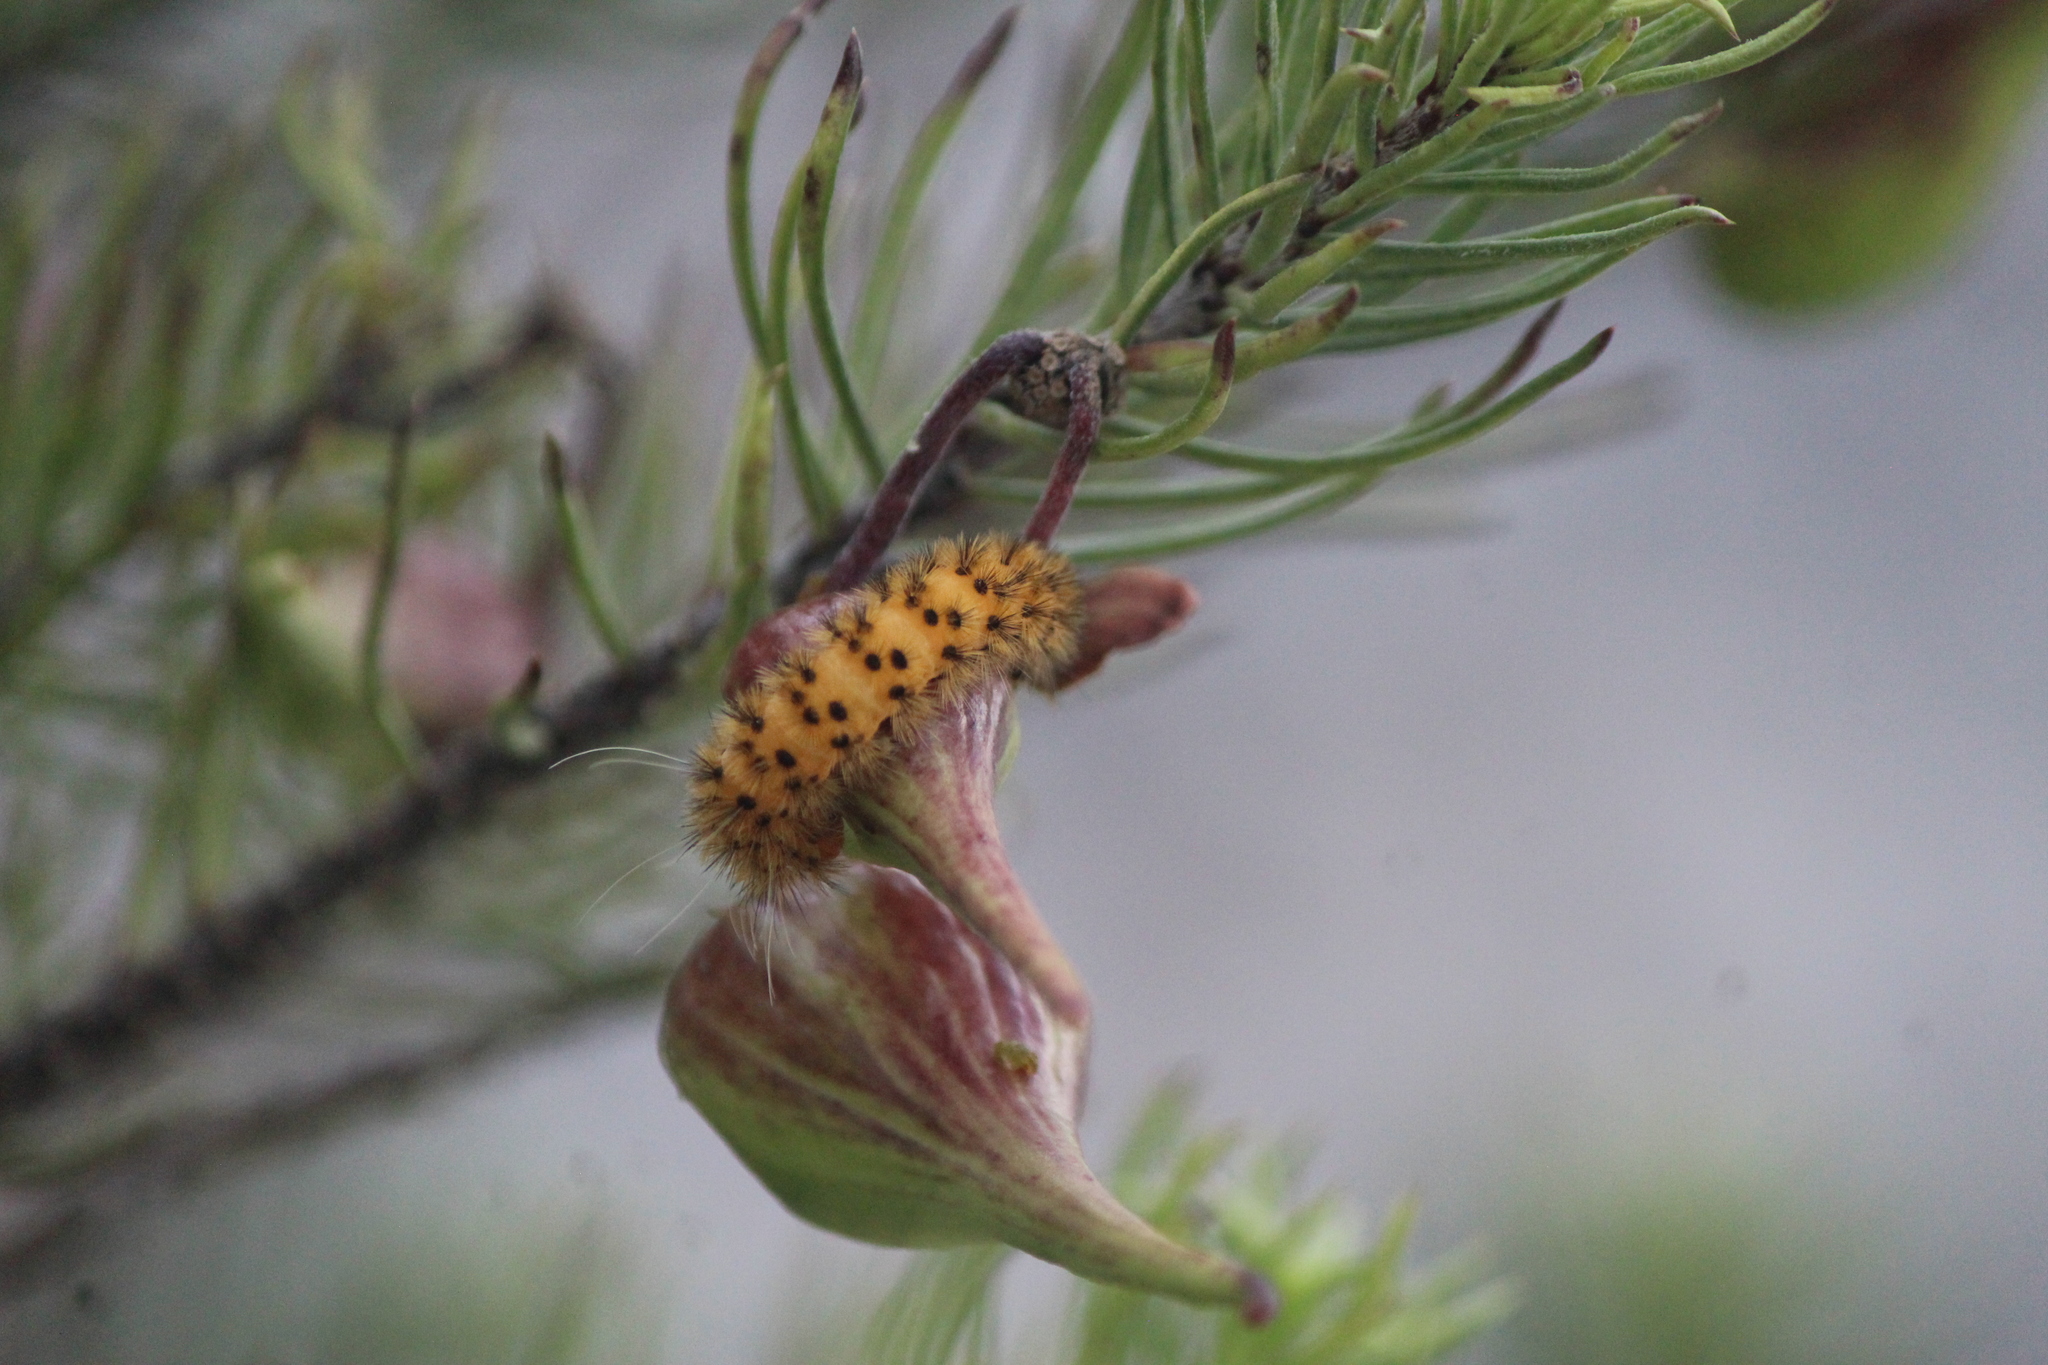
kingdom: Animalia
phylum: Arthropoda
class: Insecta
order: Lepidoptera
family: Erebidae
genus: Lerina
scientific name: Lerina incarnata
